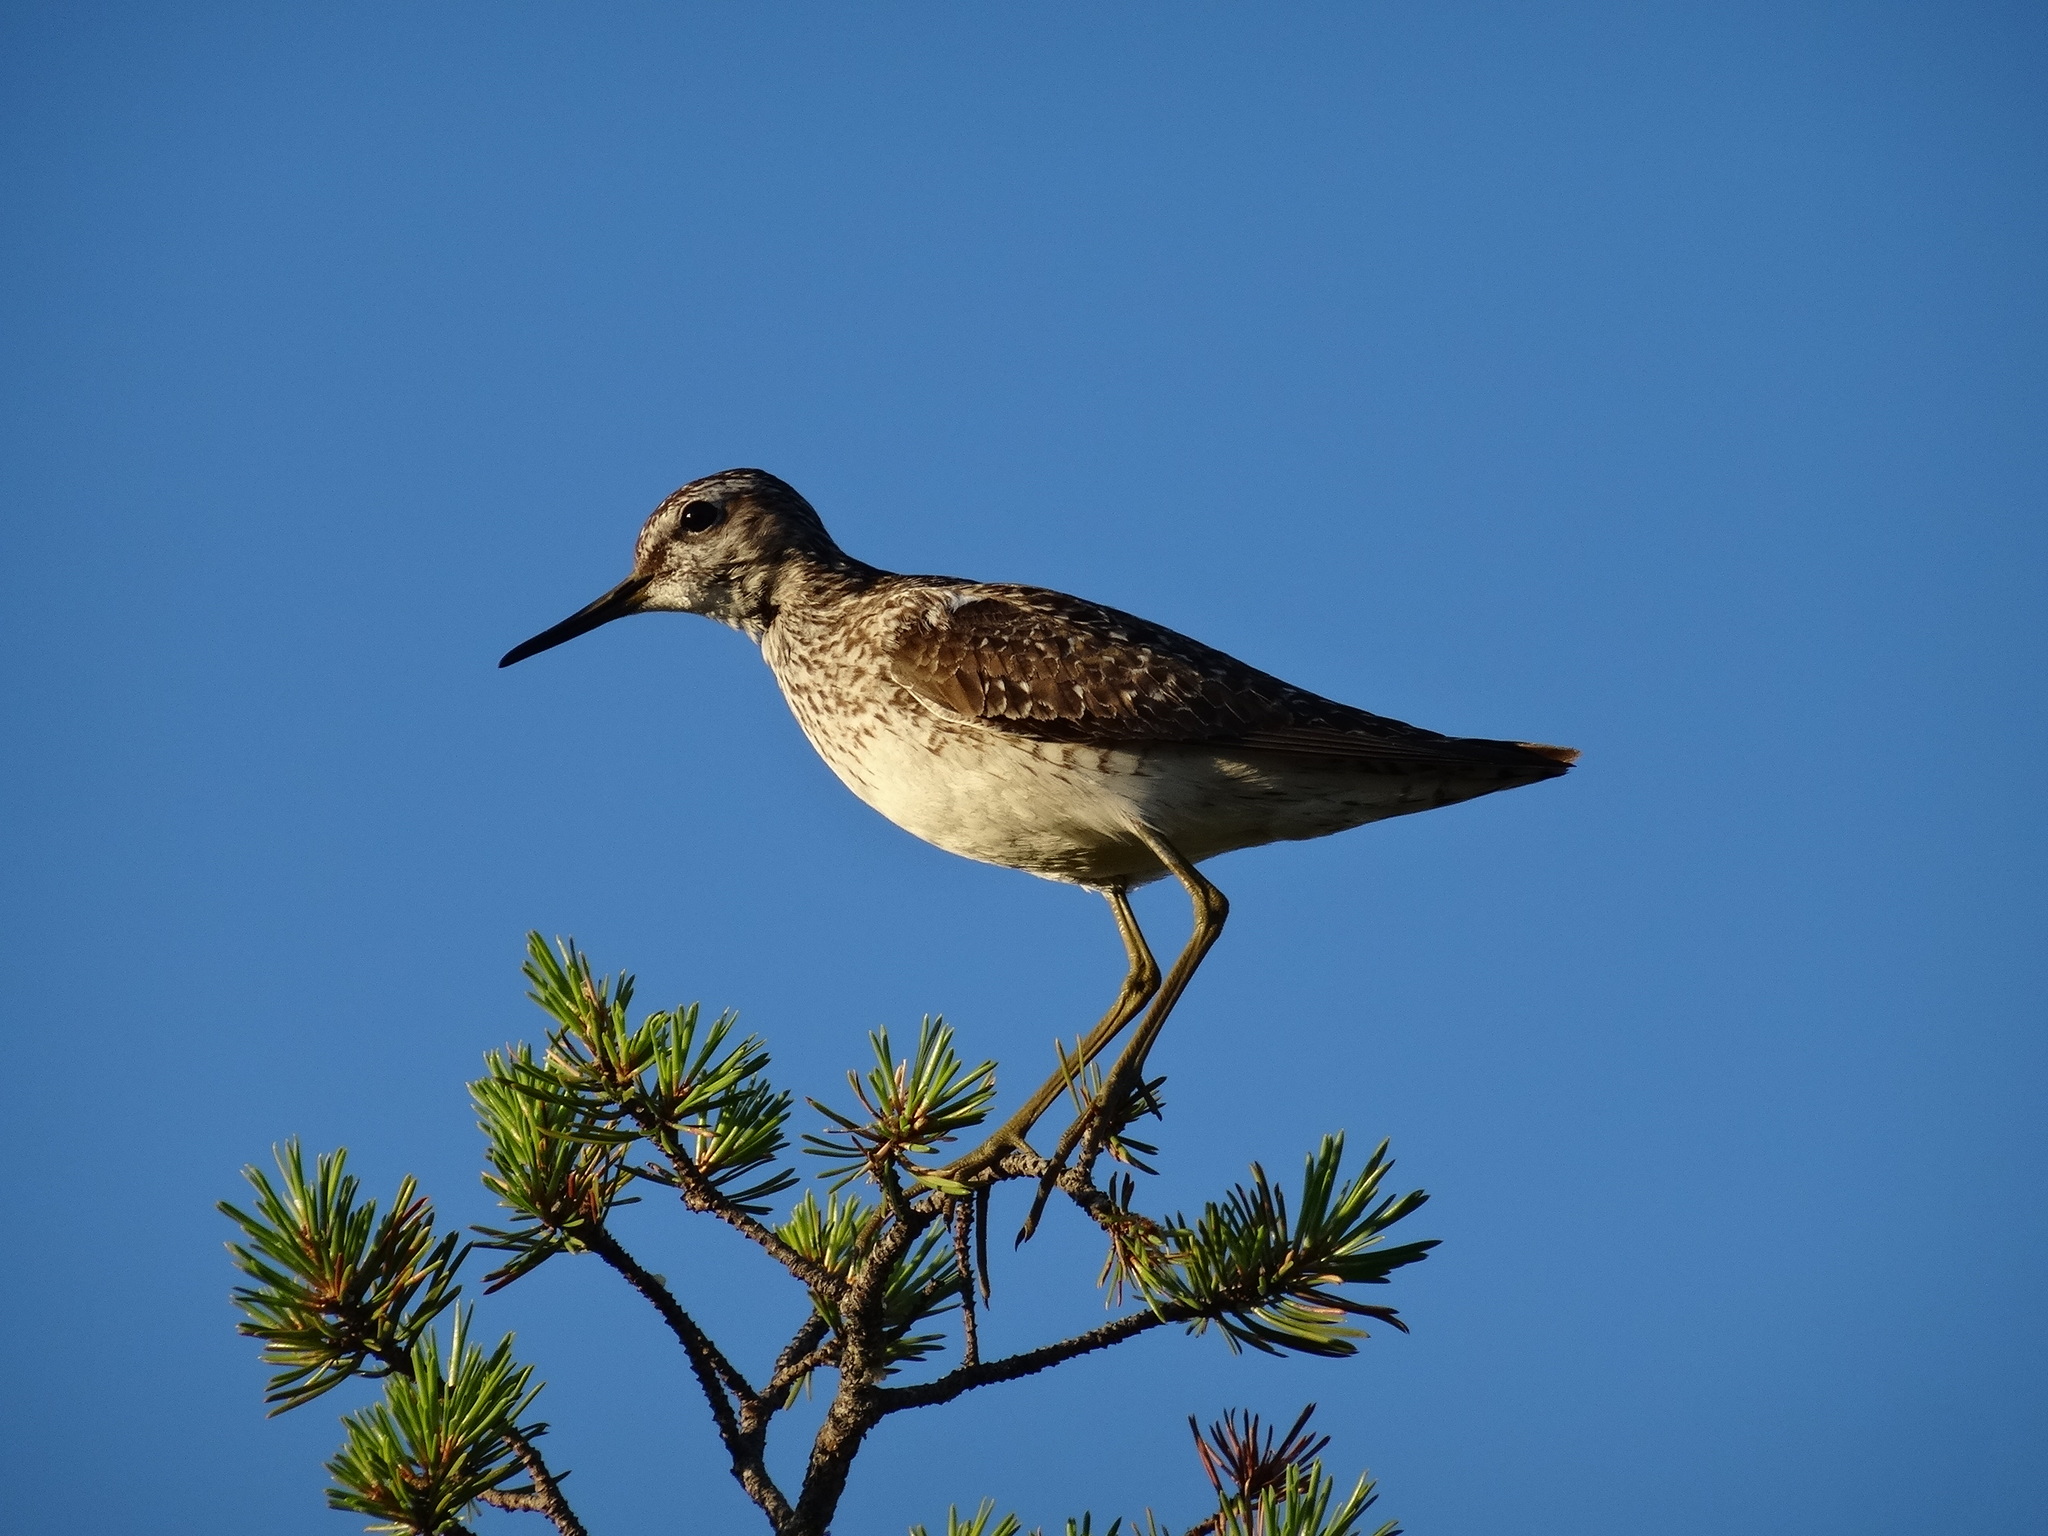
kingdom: Animalia
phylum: Chordata
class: Aves
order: Charadriiformes
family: Scolopacidae
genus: Tringa
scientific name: Tringa glareola
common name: Wood sandpiper
